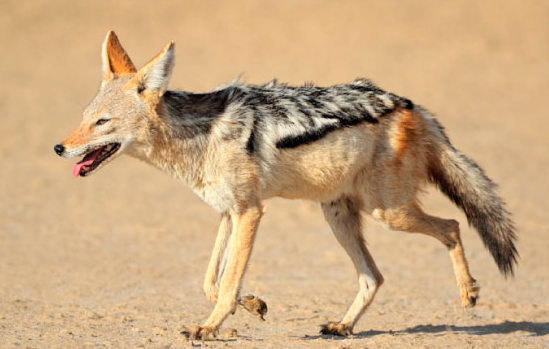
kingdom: Animalia
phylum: Chordata
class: Mammalia
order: Carnivora
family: Canidae
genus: Lupulella
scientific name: Lupulella
